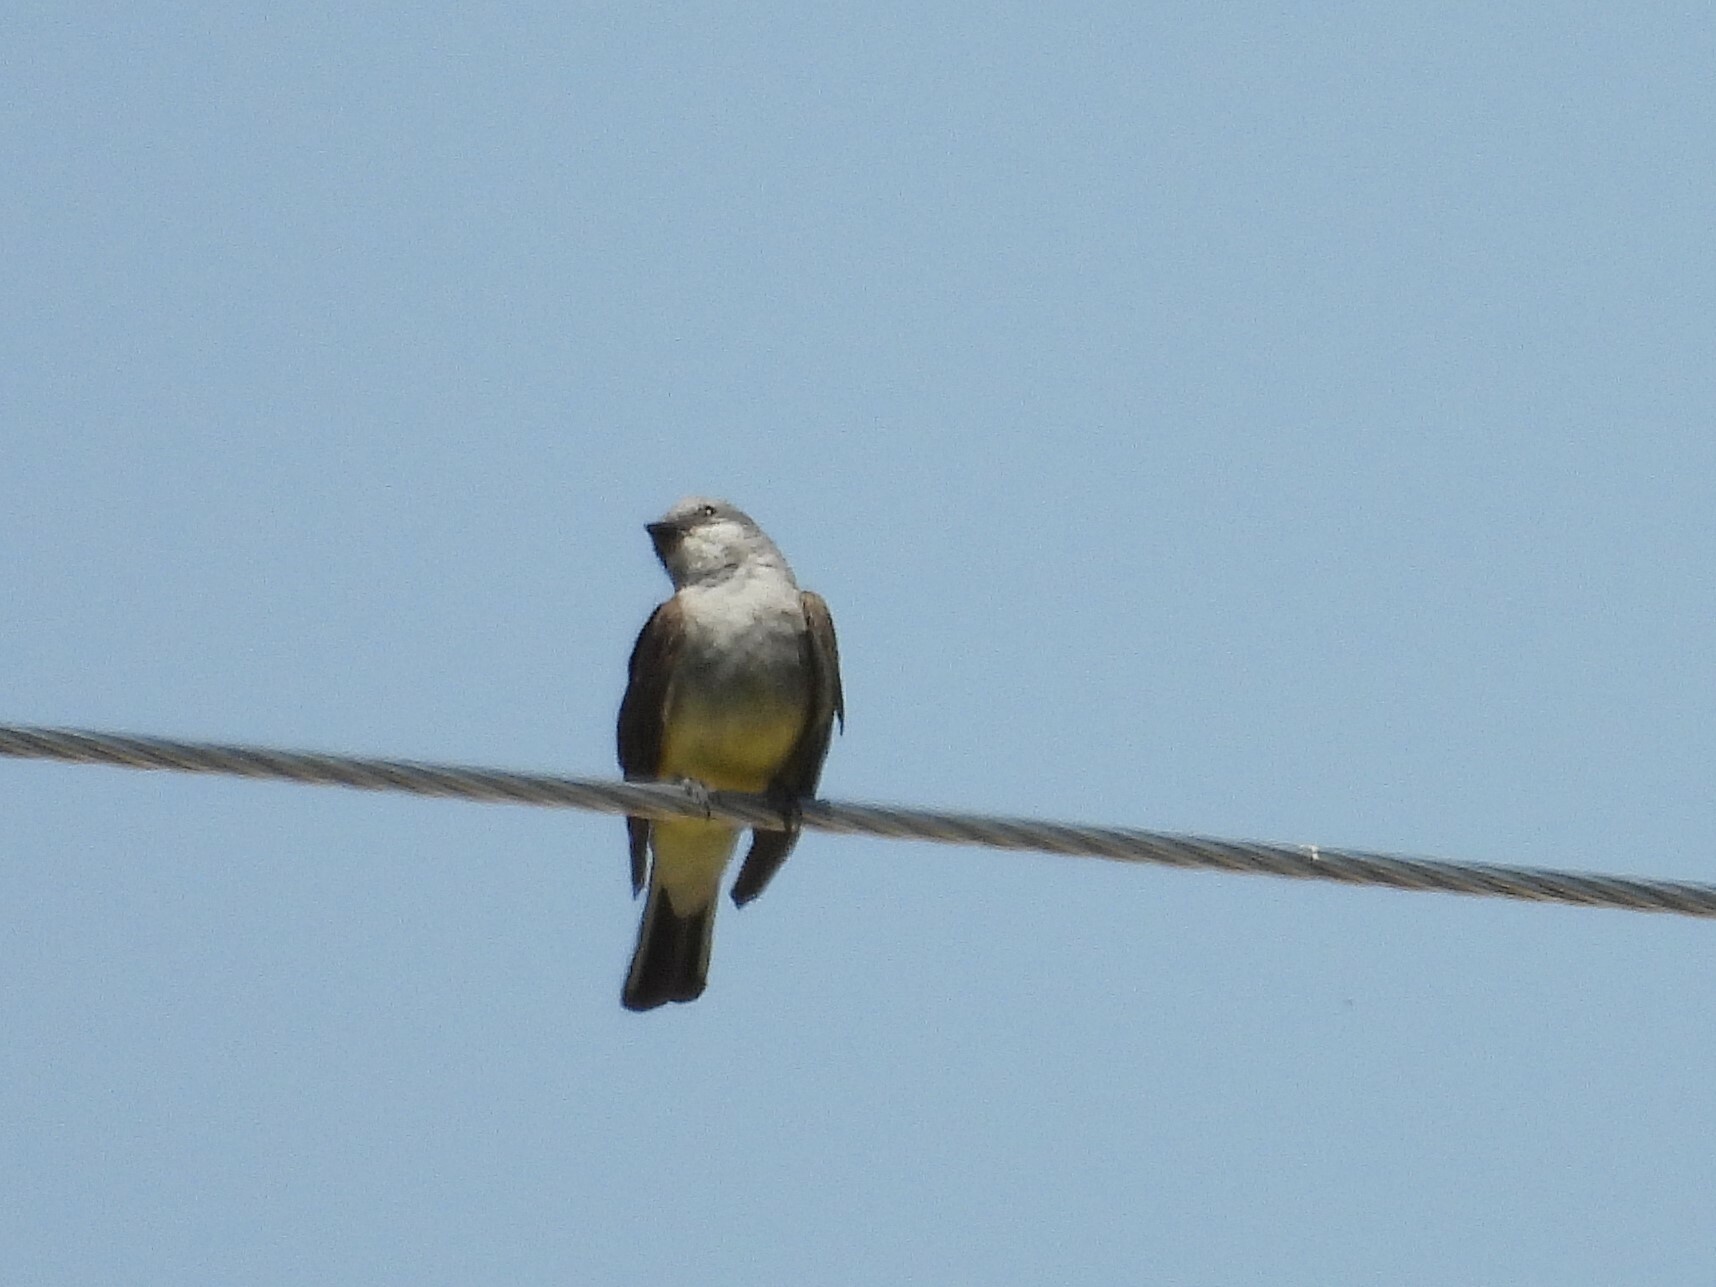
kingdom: Animalia
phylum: Chordata
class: Aves
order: Passeriformes
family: Tyrannidae
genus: Tyrannus
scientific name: Tyrannus verticalis
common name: Western kingbird
